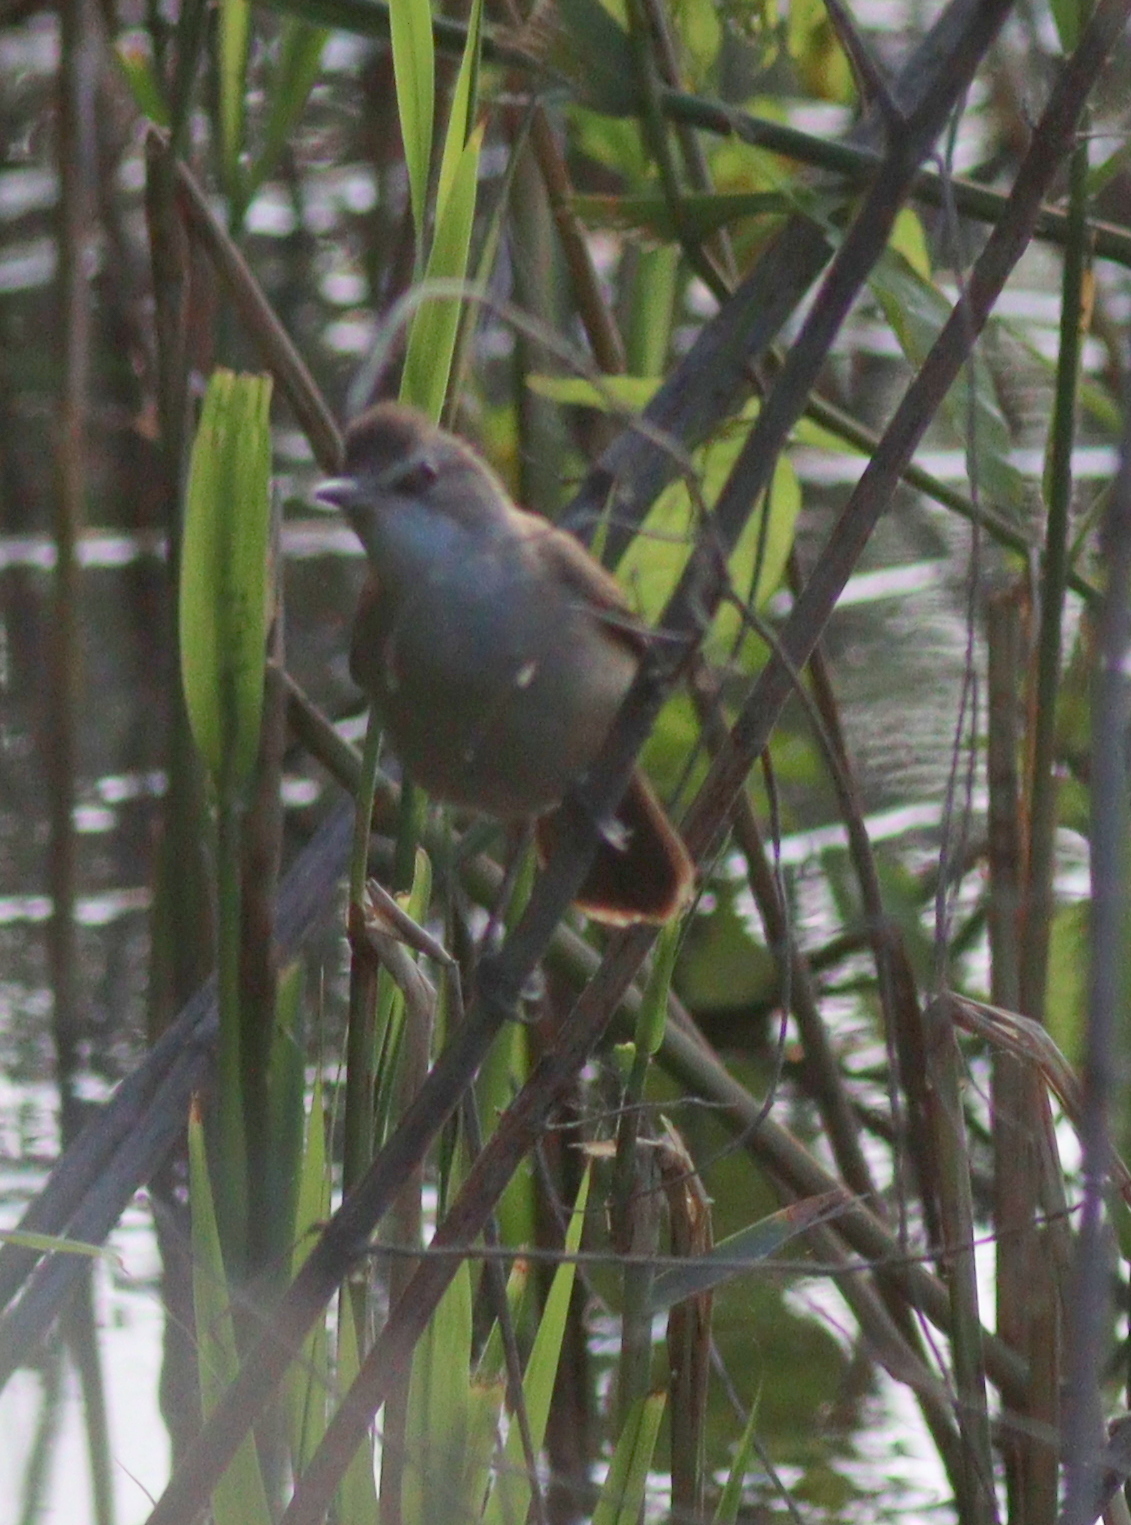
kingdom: Animalia
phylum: Chordata
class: Aves
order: Passeriformes
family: Acrocephalidae
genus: Acrocephalus
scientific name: Acrocephalus arundinaceus
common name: Great reed warbler
